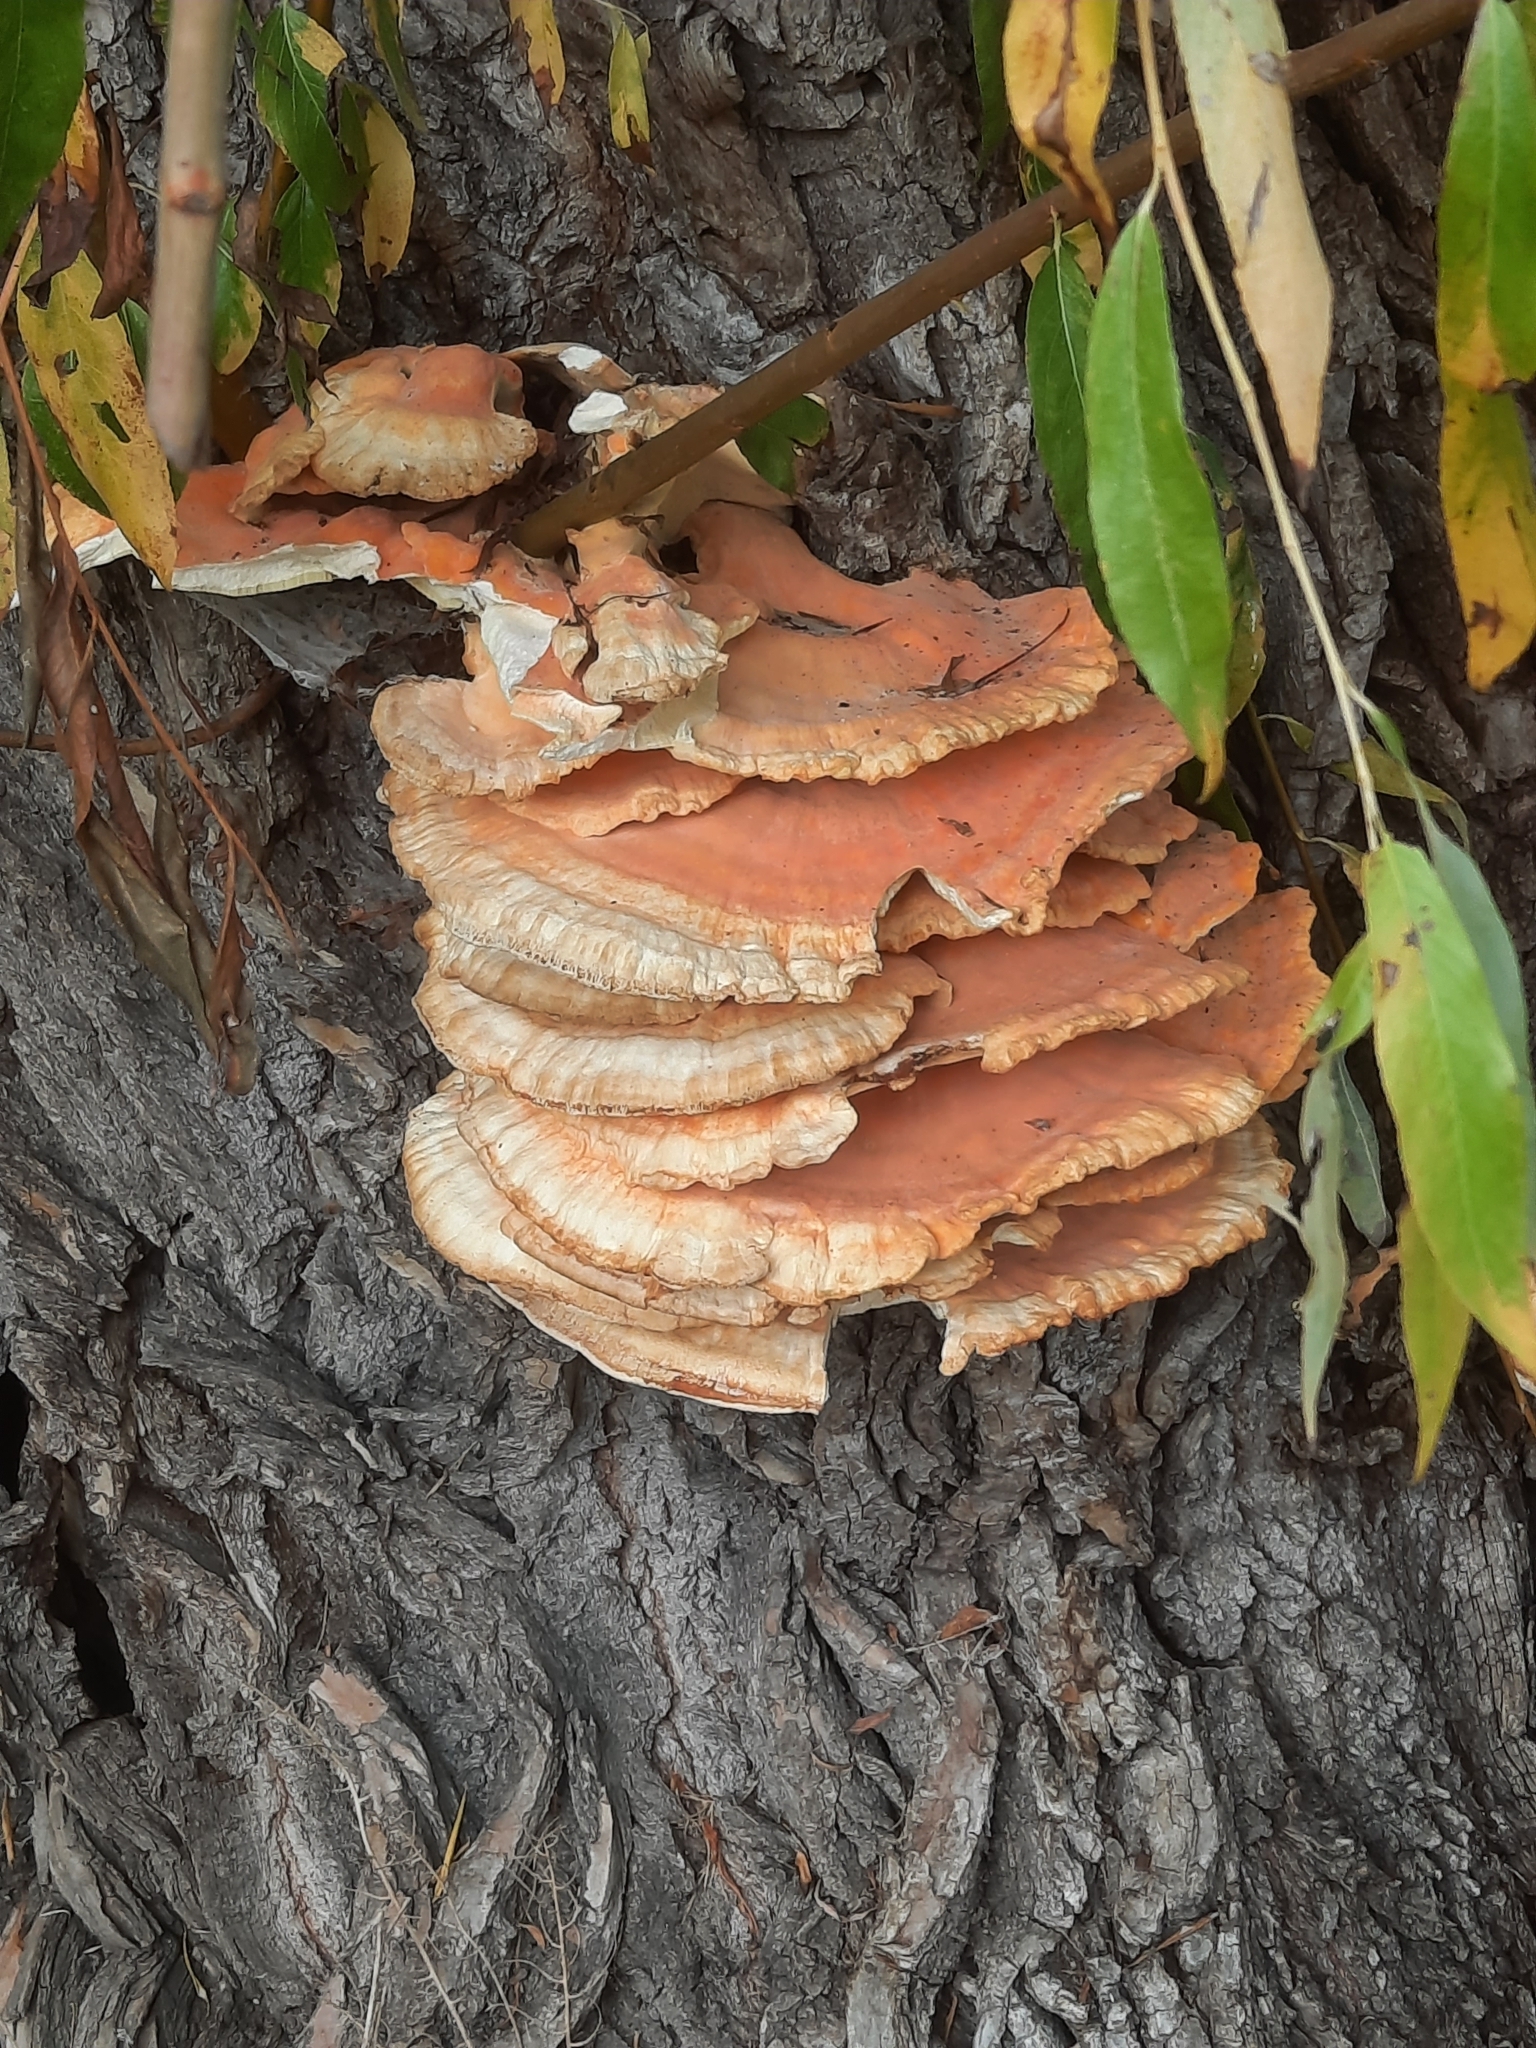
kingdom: Fungi
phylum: Basidiomycota
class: Agaricomycetes
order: Polyporales
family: Laetiporaceae
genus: Laetiporus
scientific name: Laetiporus sulphureus
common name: Chicken of the woods
